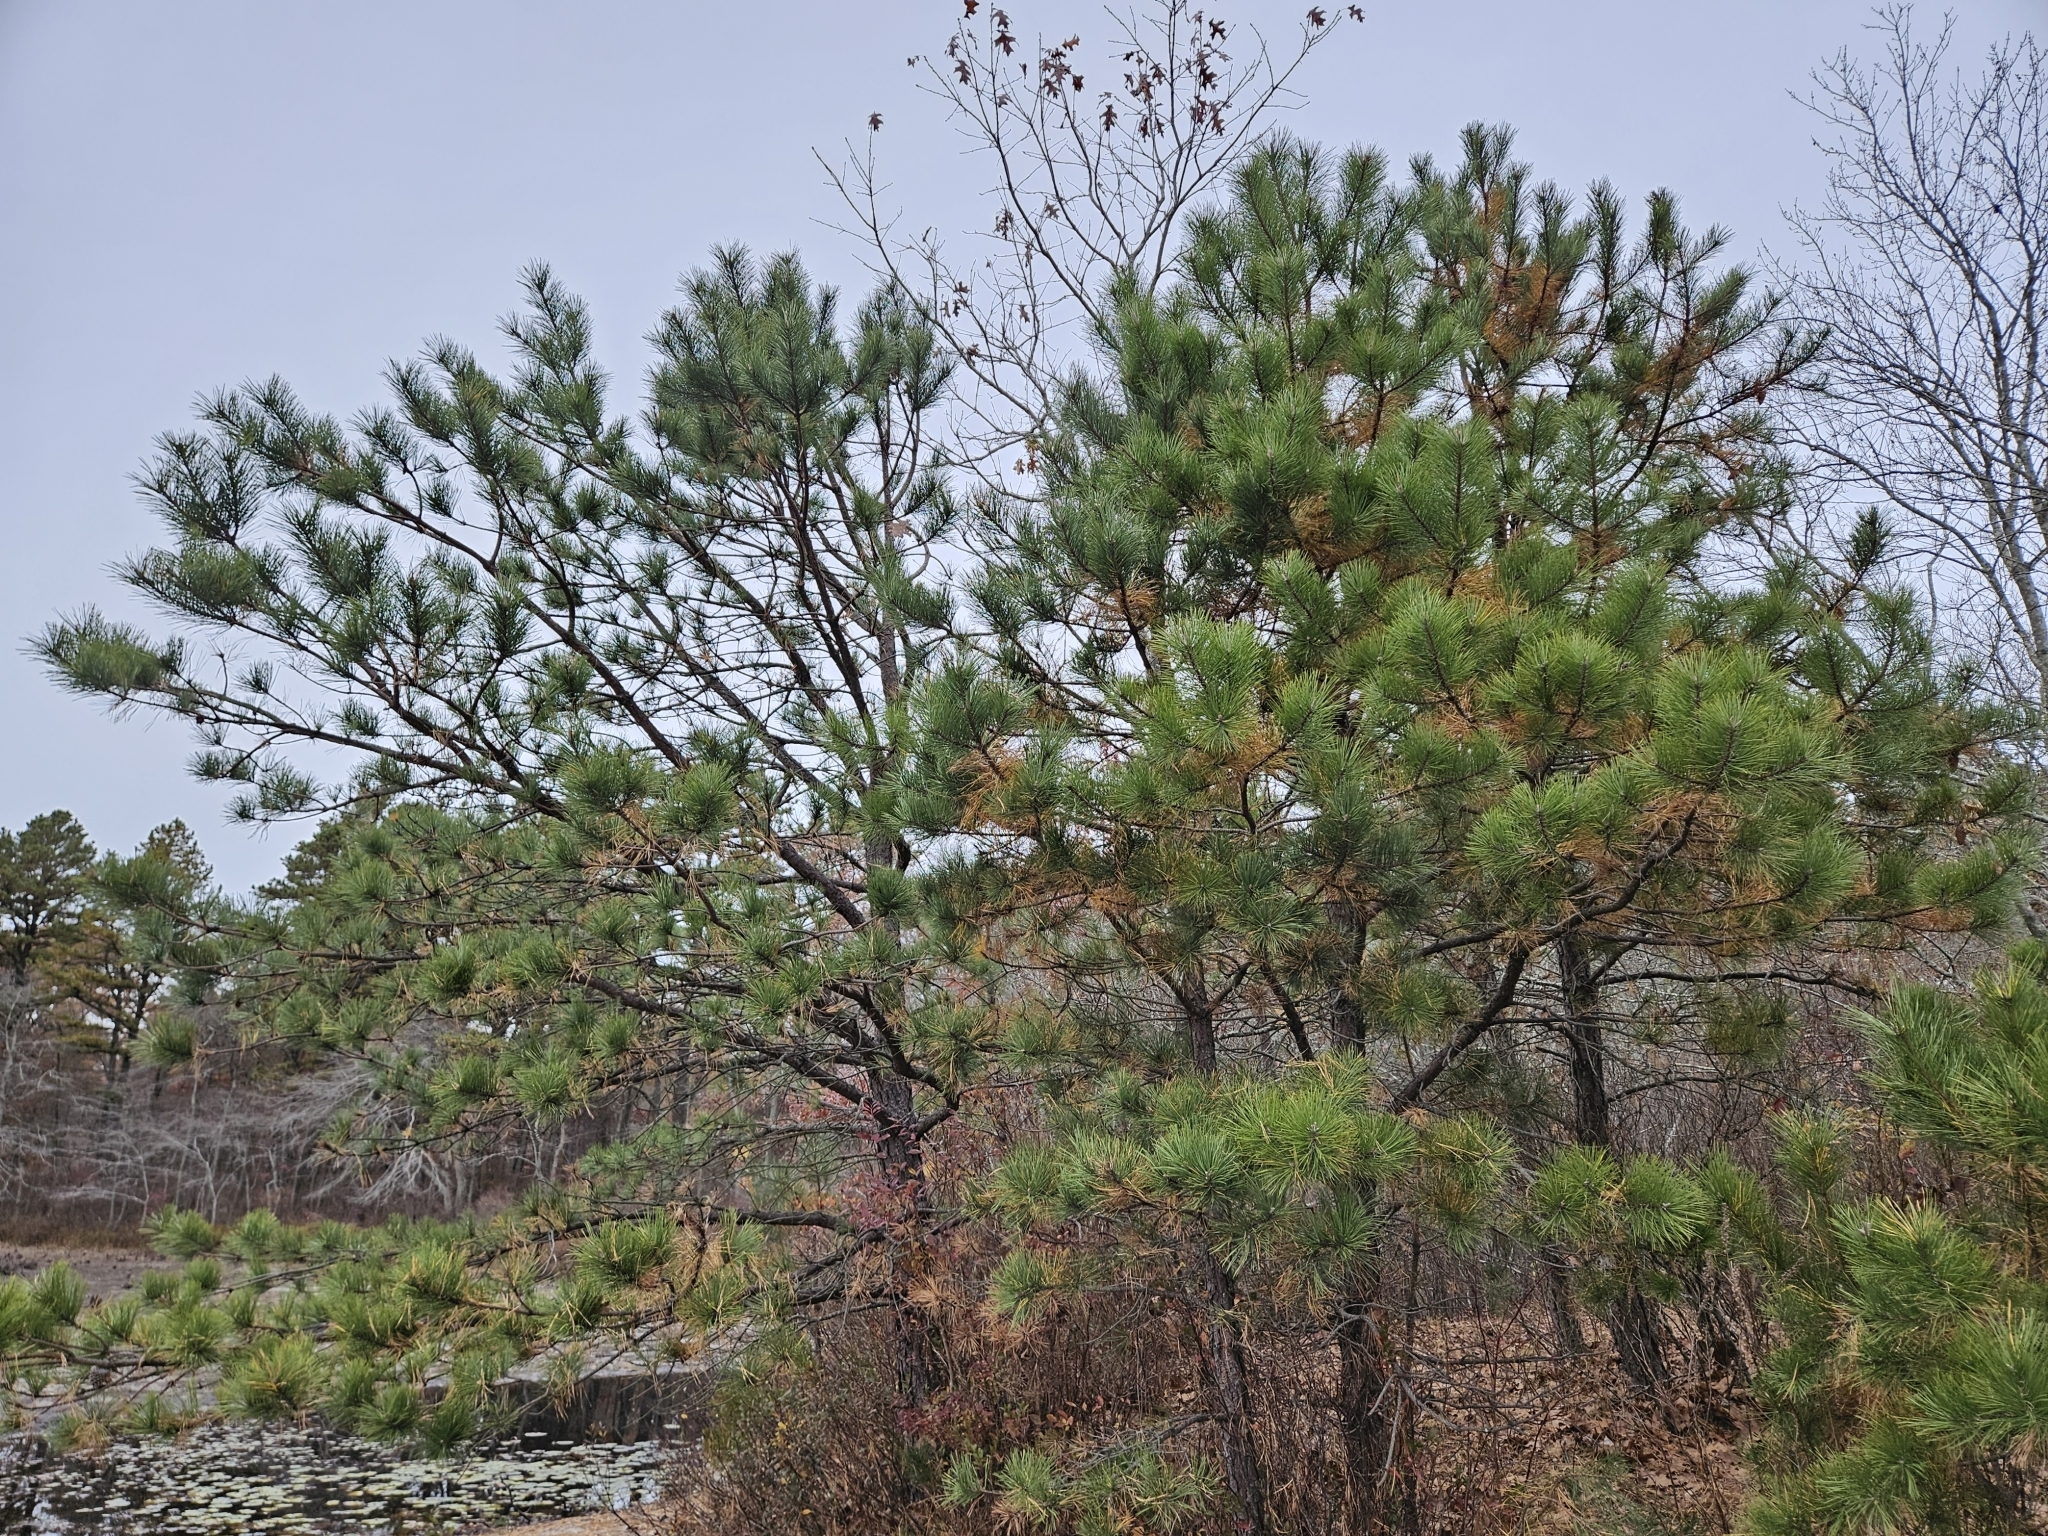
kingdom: Plantae
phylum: Tracheophyta
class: Pinopsida
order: Pinales
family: Pinaceae
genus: Pinus
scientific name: Pinus rigida
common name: Pitch pine
